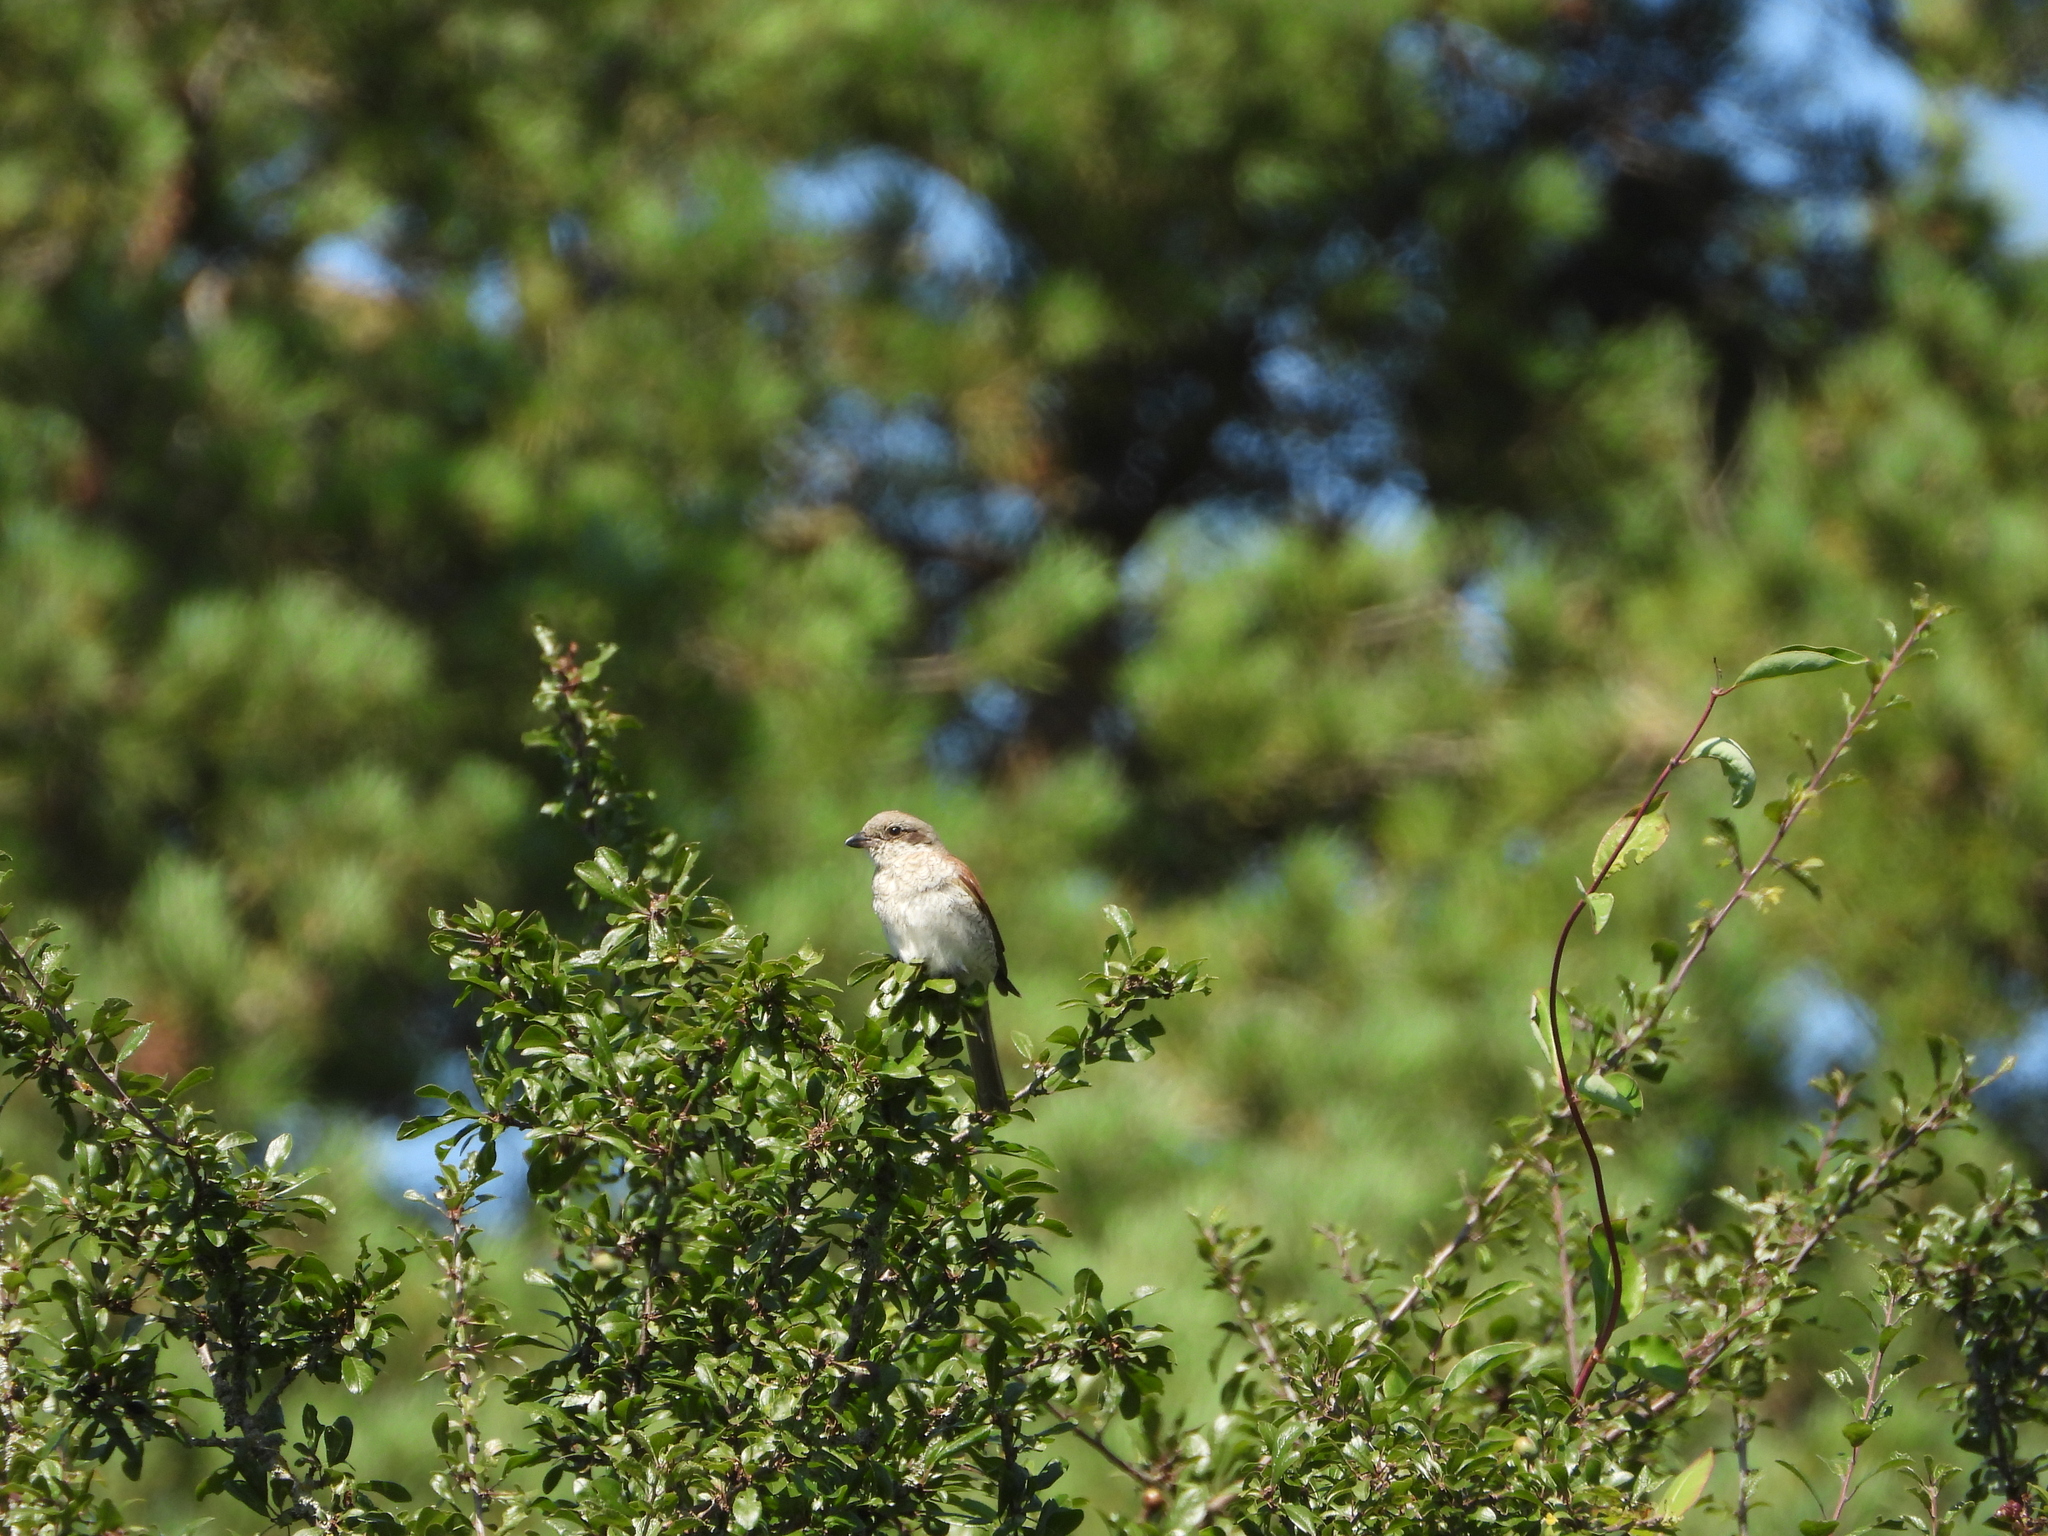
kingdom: Animalia
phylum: Chordata
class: Aves
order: Passeriformes
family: Laniidae
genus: Lanius
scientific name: Lanius collurio
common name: Red-backed shrike
